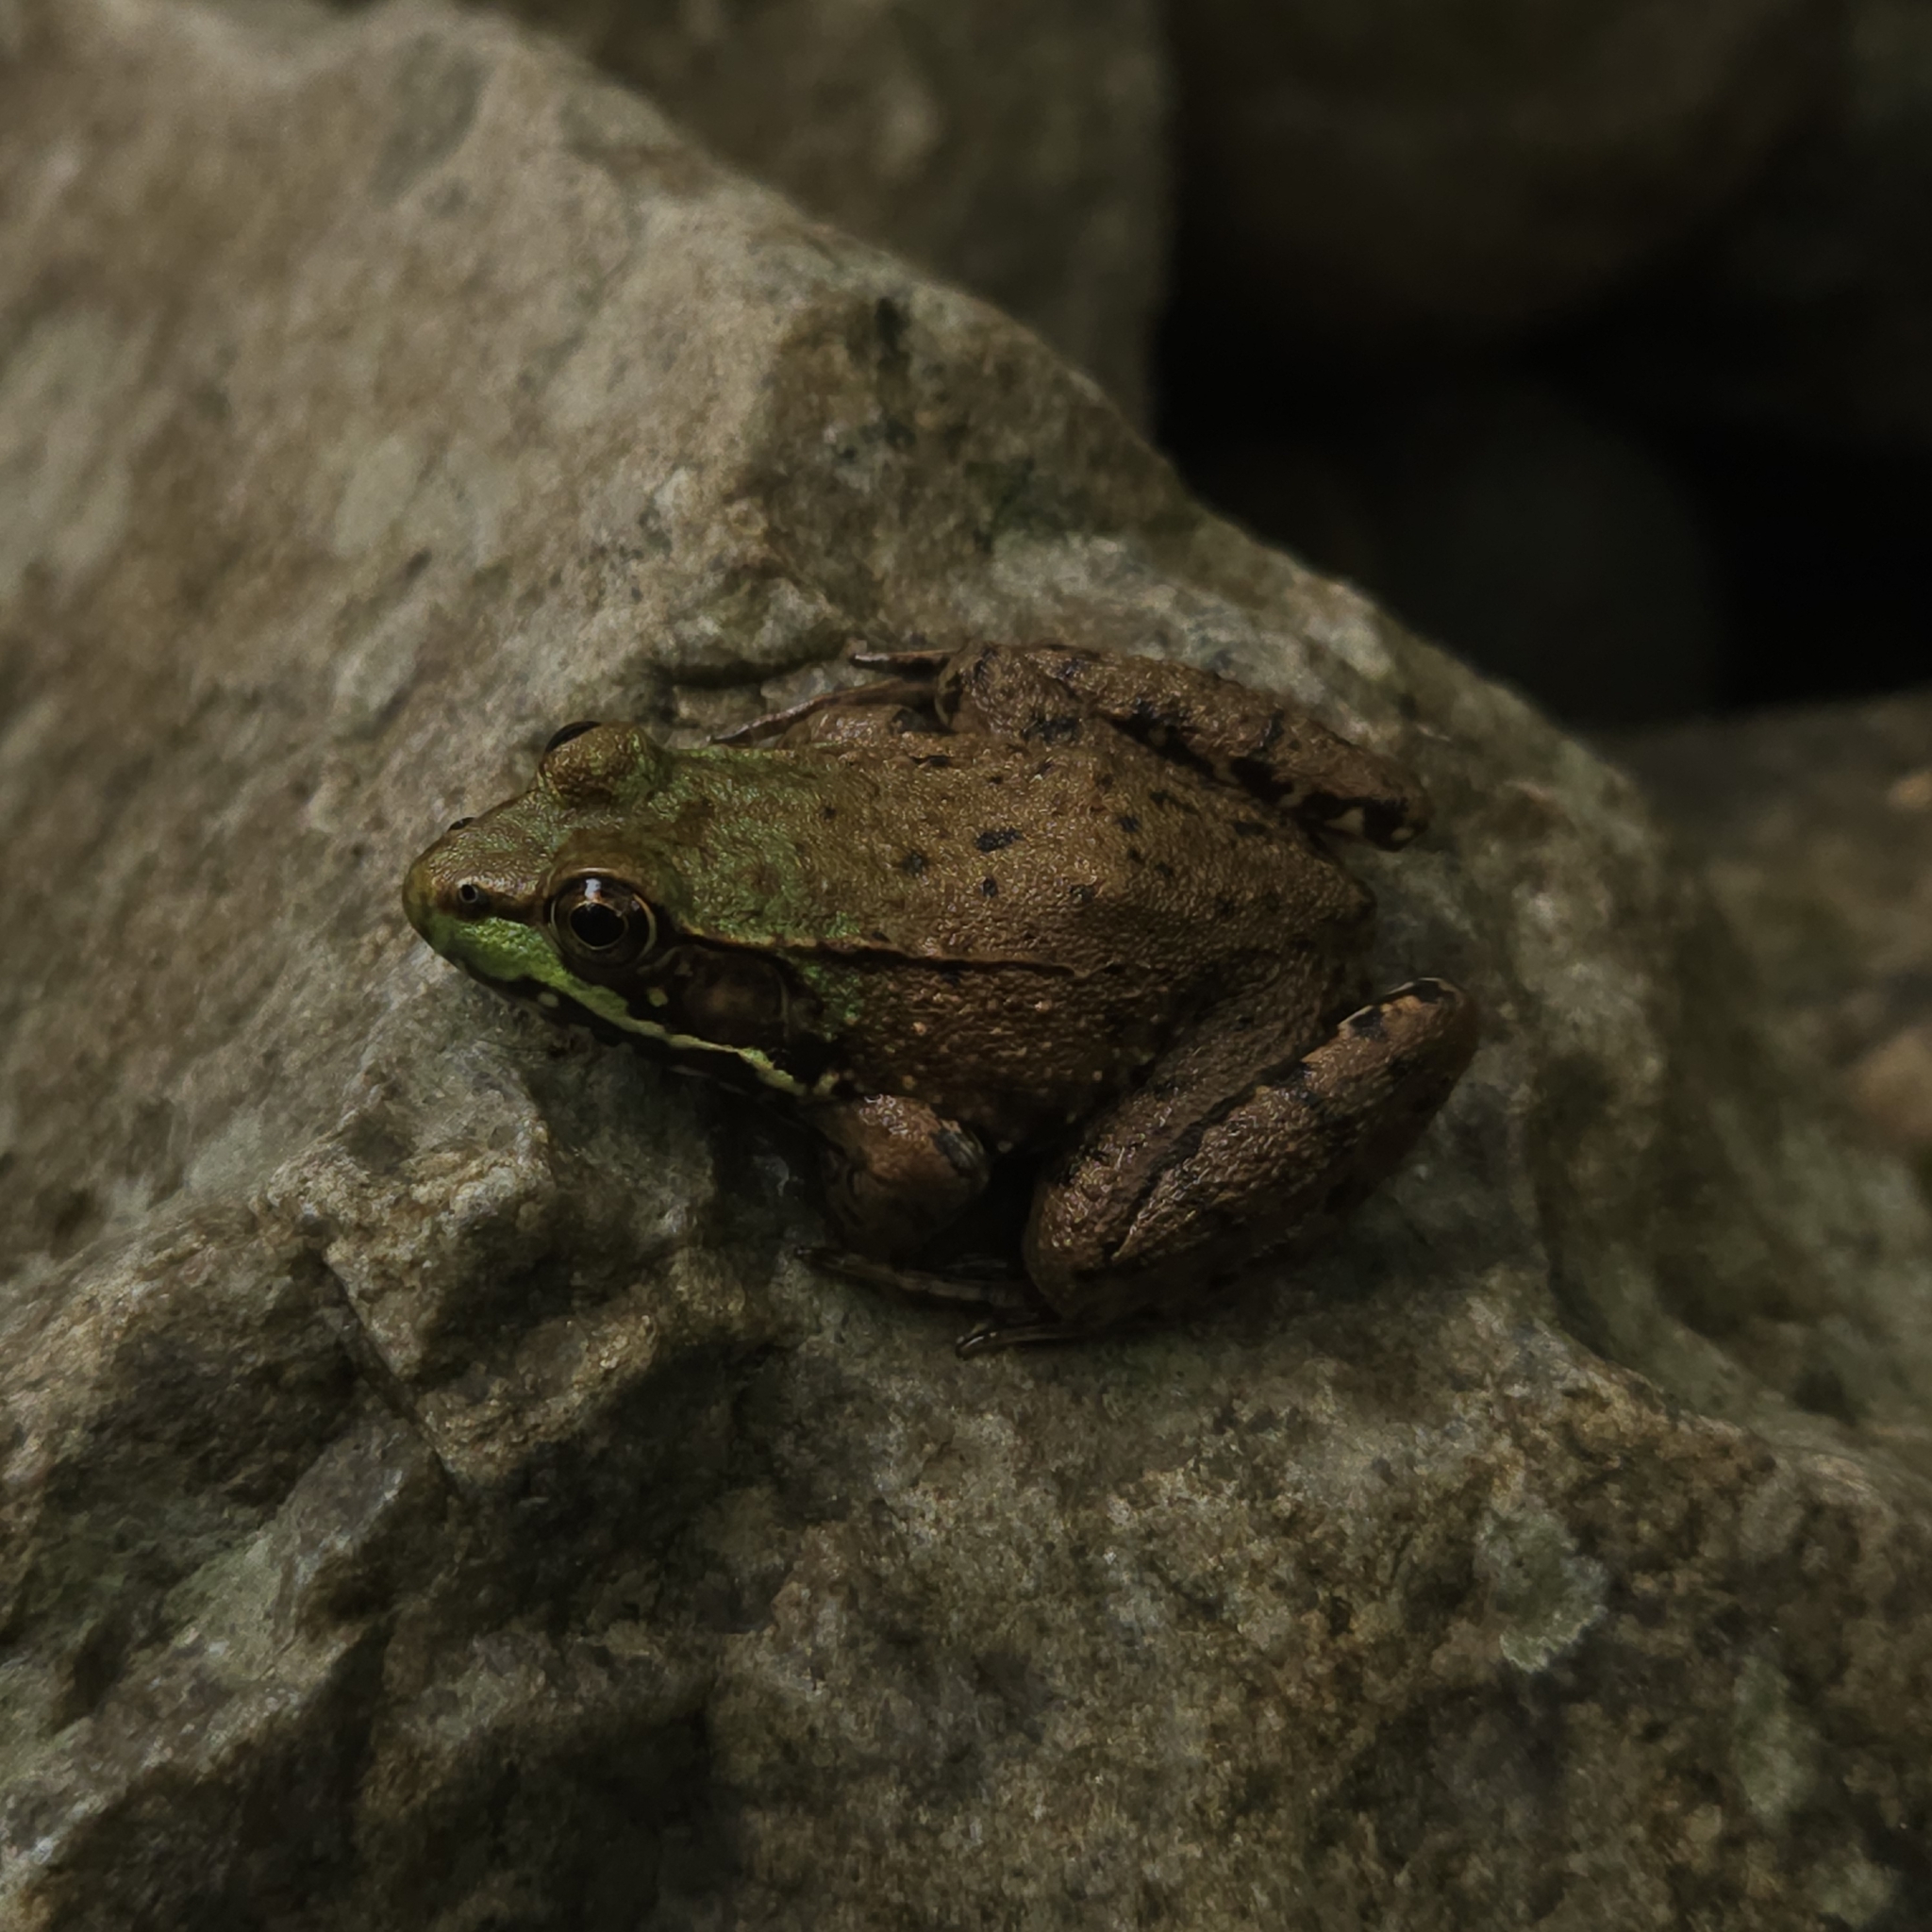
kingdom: Animalia
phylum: Chordata
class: Amphibia
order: Anura
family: Ranidae
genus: Lithobates
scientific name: Lithobates clamitans
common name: Green frog
